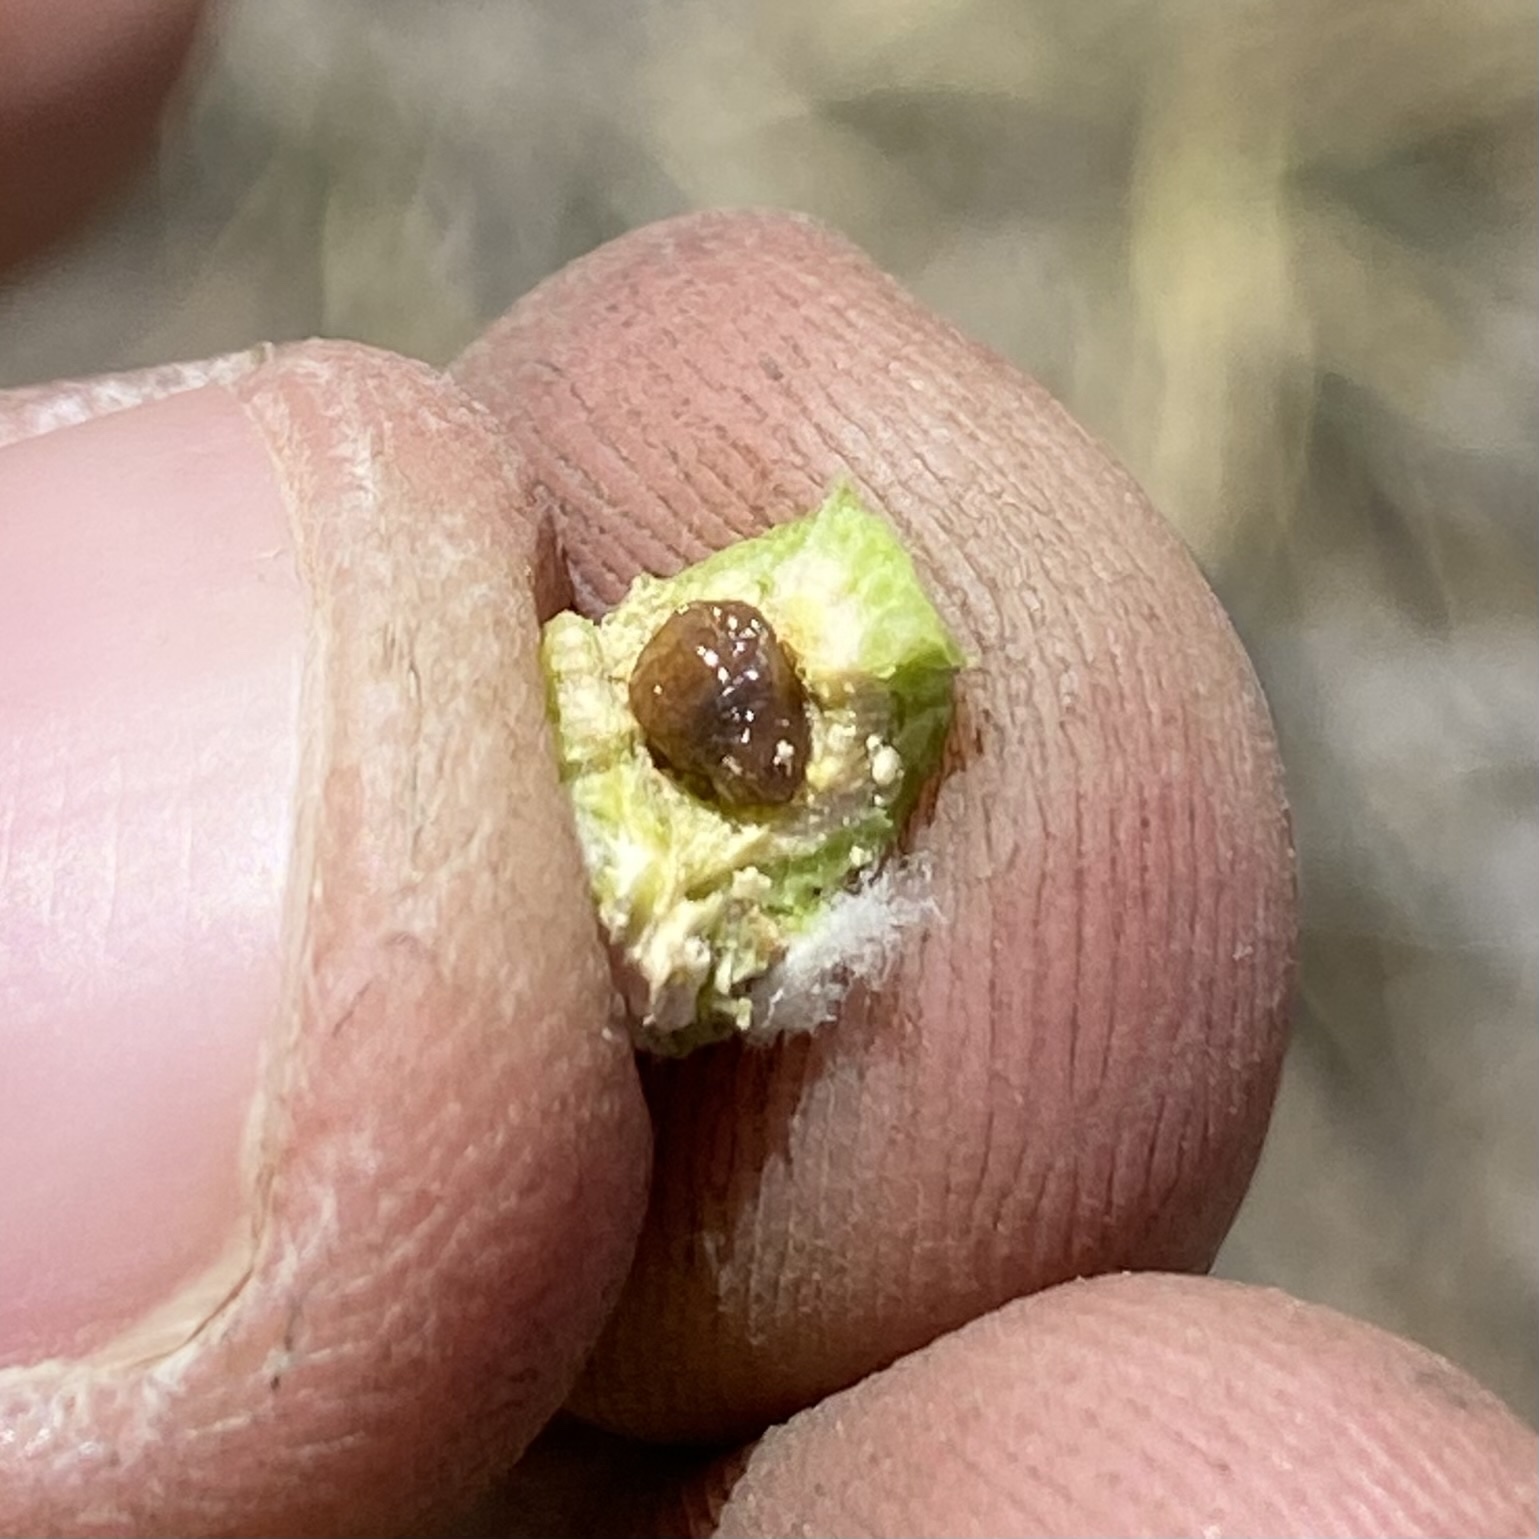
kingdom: Animalia
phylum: Arthropoda
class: Insecta
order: Diptera
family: Tephritidae
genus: Aciurina
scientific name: Aciurina bigeloviae
